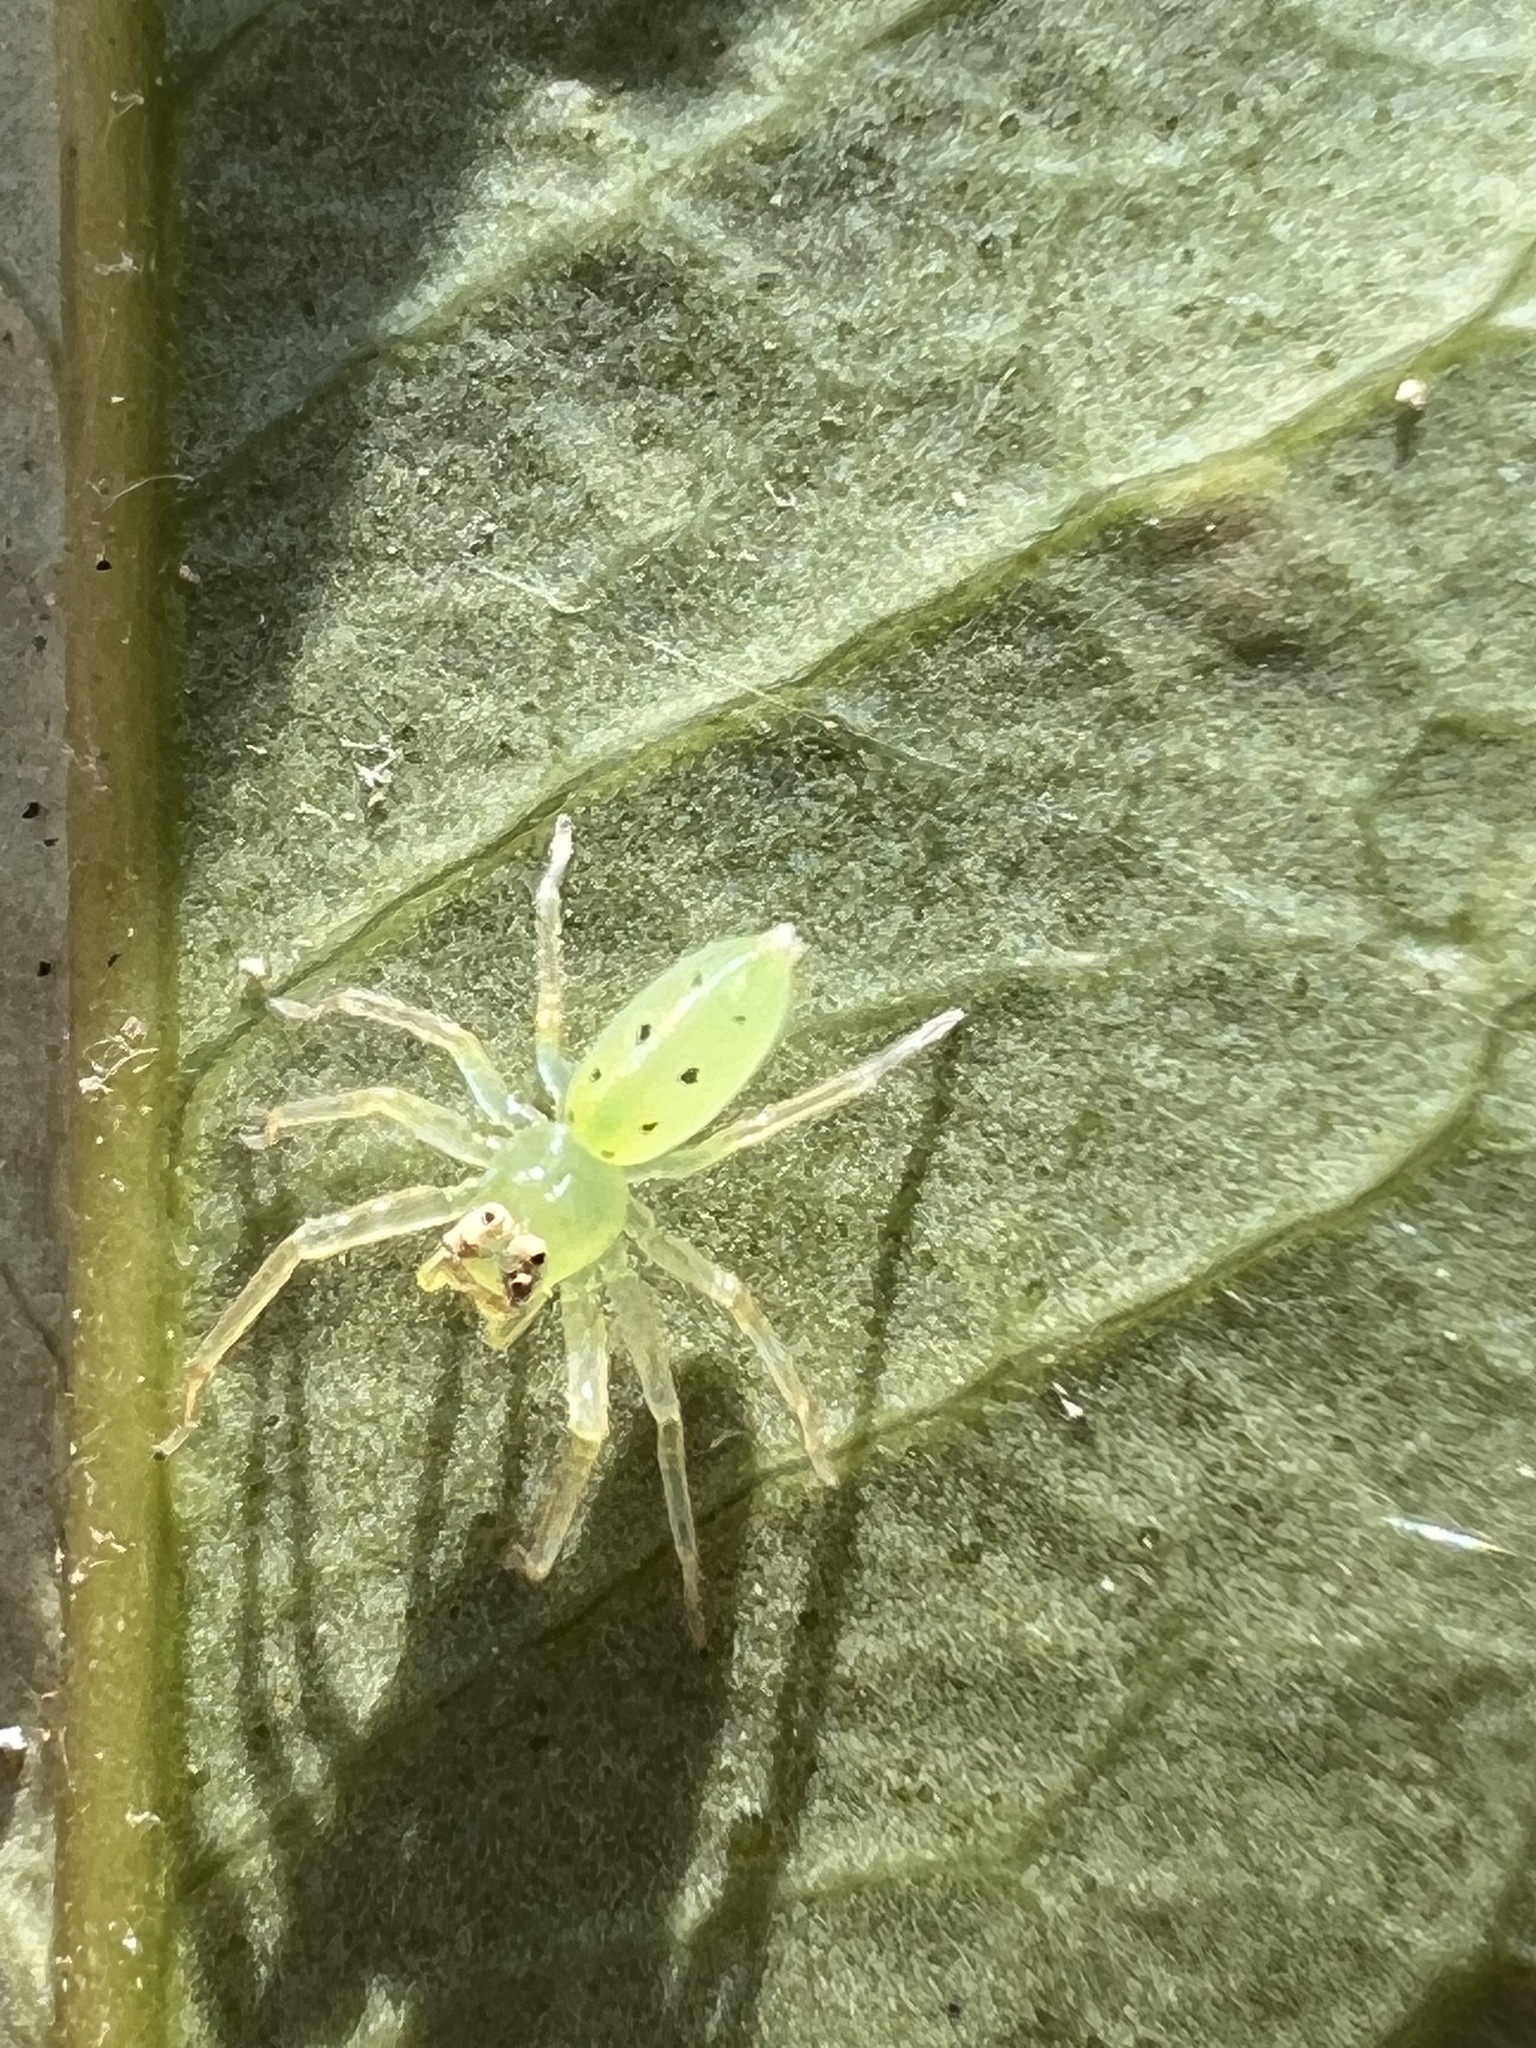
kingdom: Animalia
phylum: Arthropoda
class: Arachnida
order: Araneae
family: Salticidae
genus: Lyssomanes
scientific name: Lyssomanes viridis
